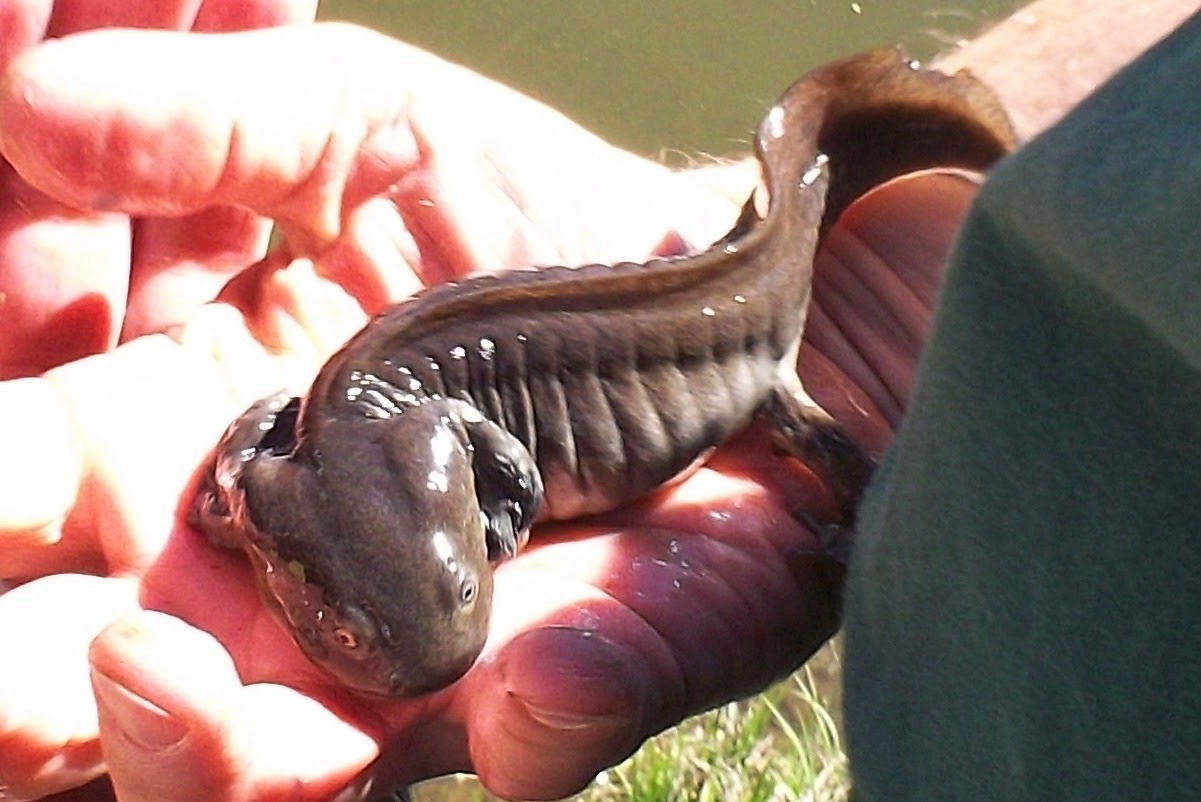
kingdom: Animalia
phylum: Chordata
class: Amphibia
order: Caudata
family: Ambystomatidae
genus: Ambystoma
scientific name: Ambystoma mavortium
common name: Western tiger salamander
